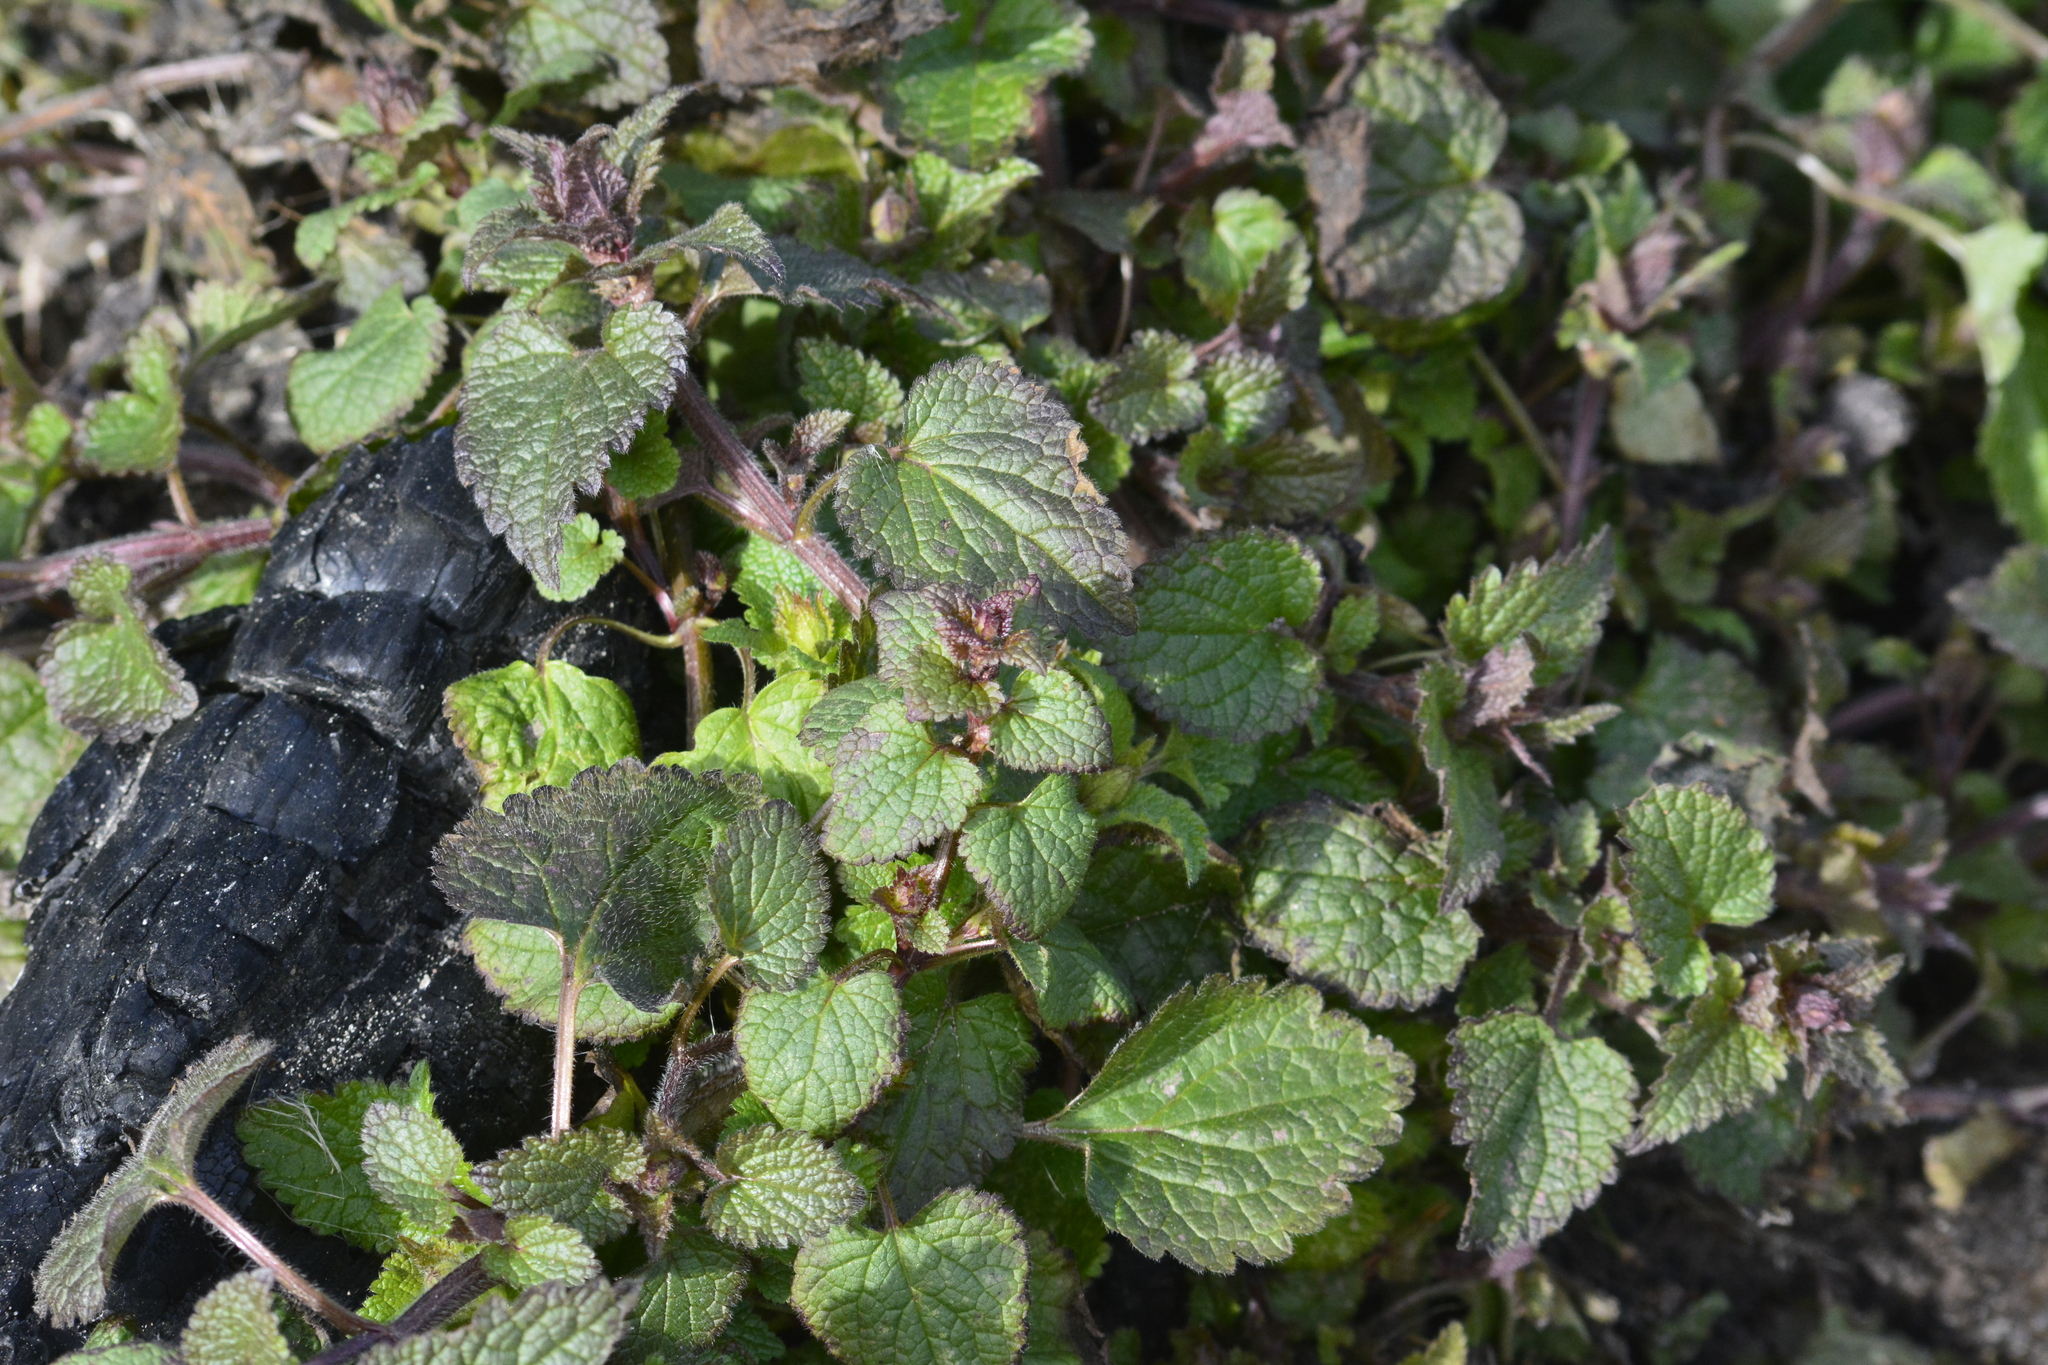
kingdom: Plantae
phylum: Tracheophyta
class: Magnoliopsida
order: Lamiales
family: Lamiaceae
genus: Lamium
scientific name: Lamium maculatum
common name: Spotted dead-nettle
